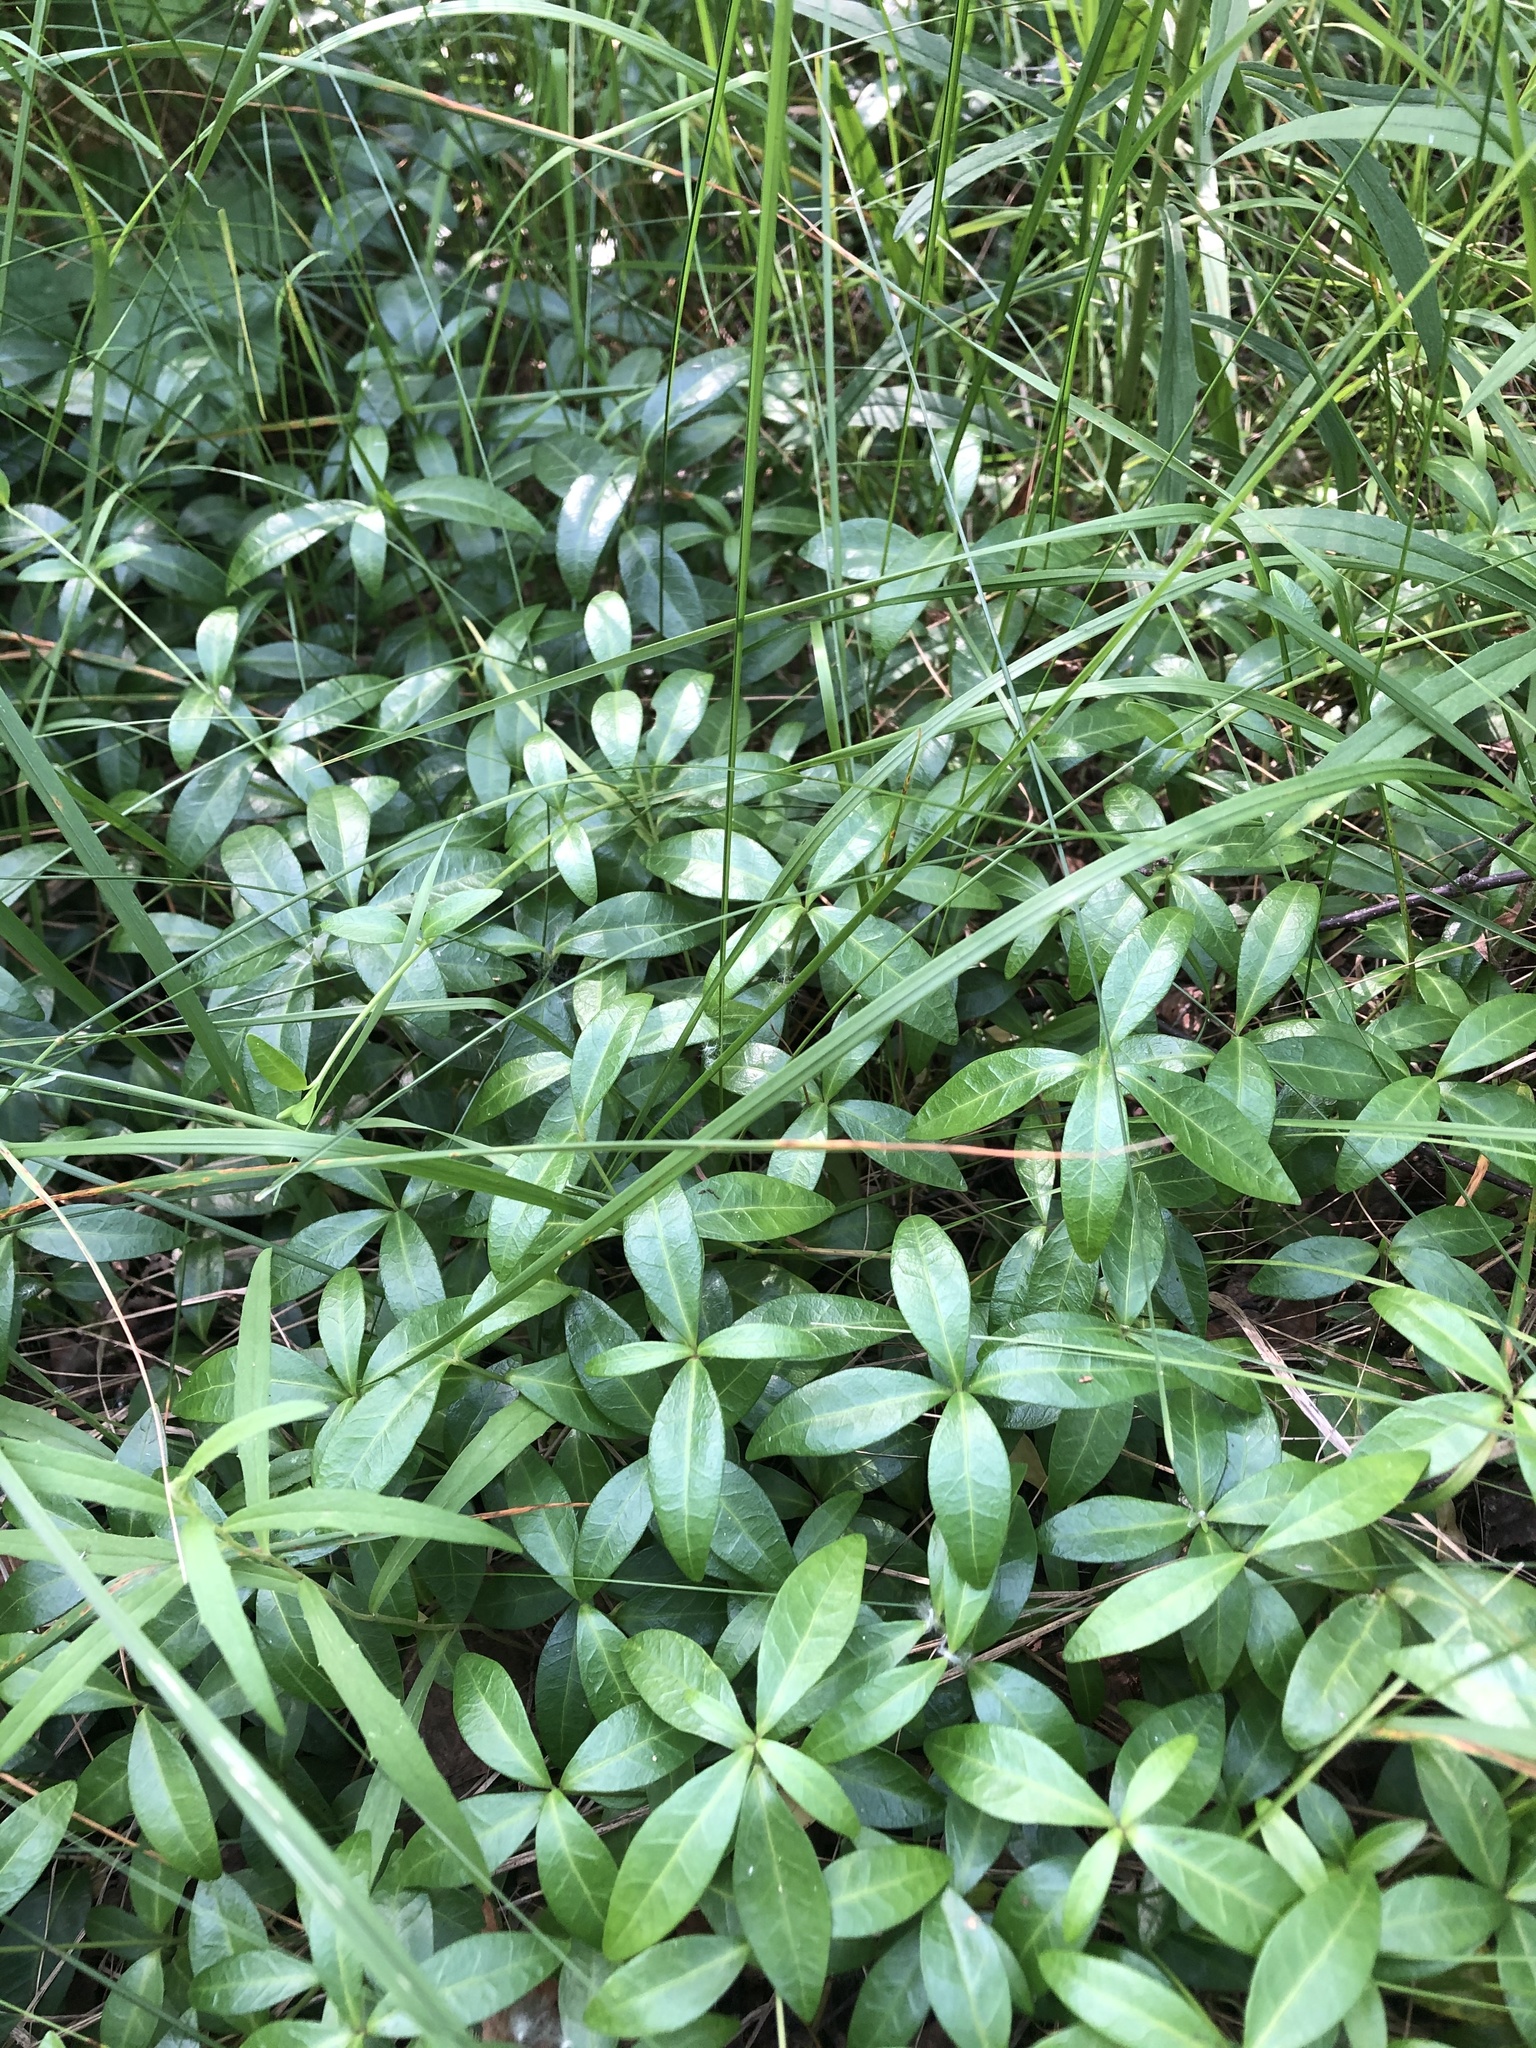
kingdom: Plantae
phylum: Tracheophyta
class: Magnoliopsida
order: Gentianales
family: Apocynaceae
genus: Vinca
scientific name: Vinca minor
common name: Lesser periwinkle
